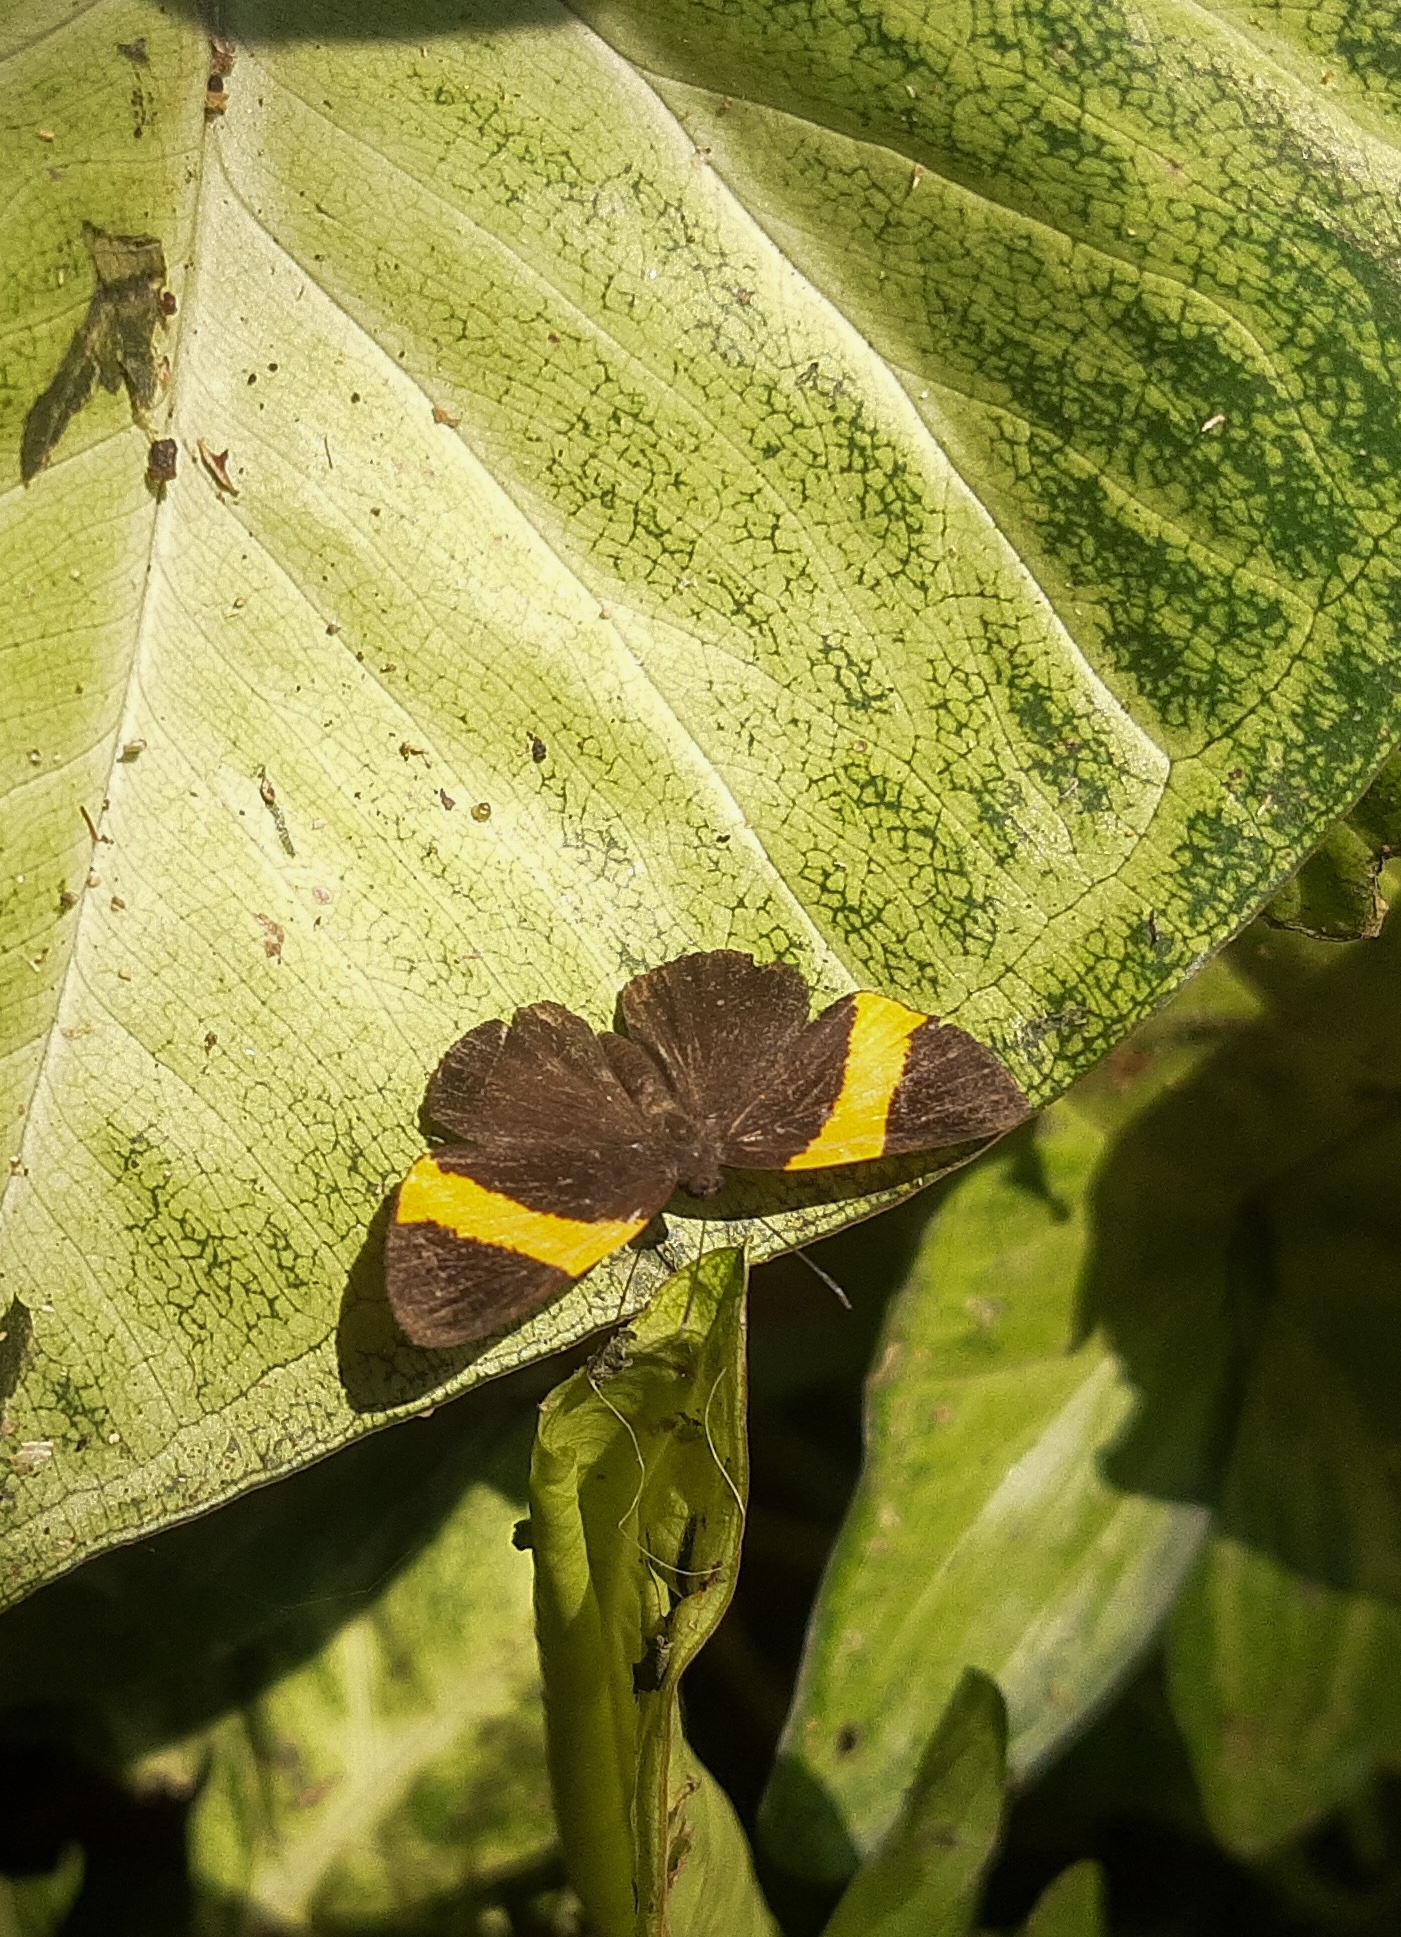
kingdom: Animalia
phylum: Arthropoda
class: Insecta
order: Lepidoptera
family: Riodinidae
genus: Pirascca
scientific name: Pirascca sagaris
